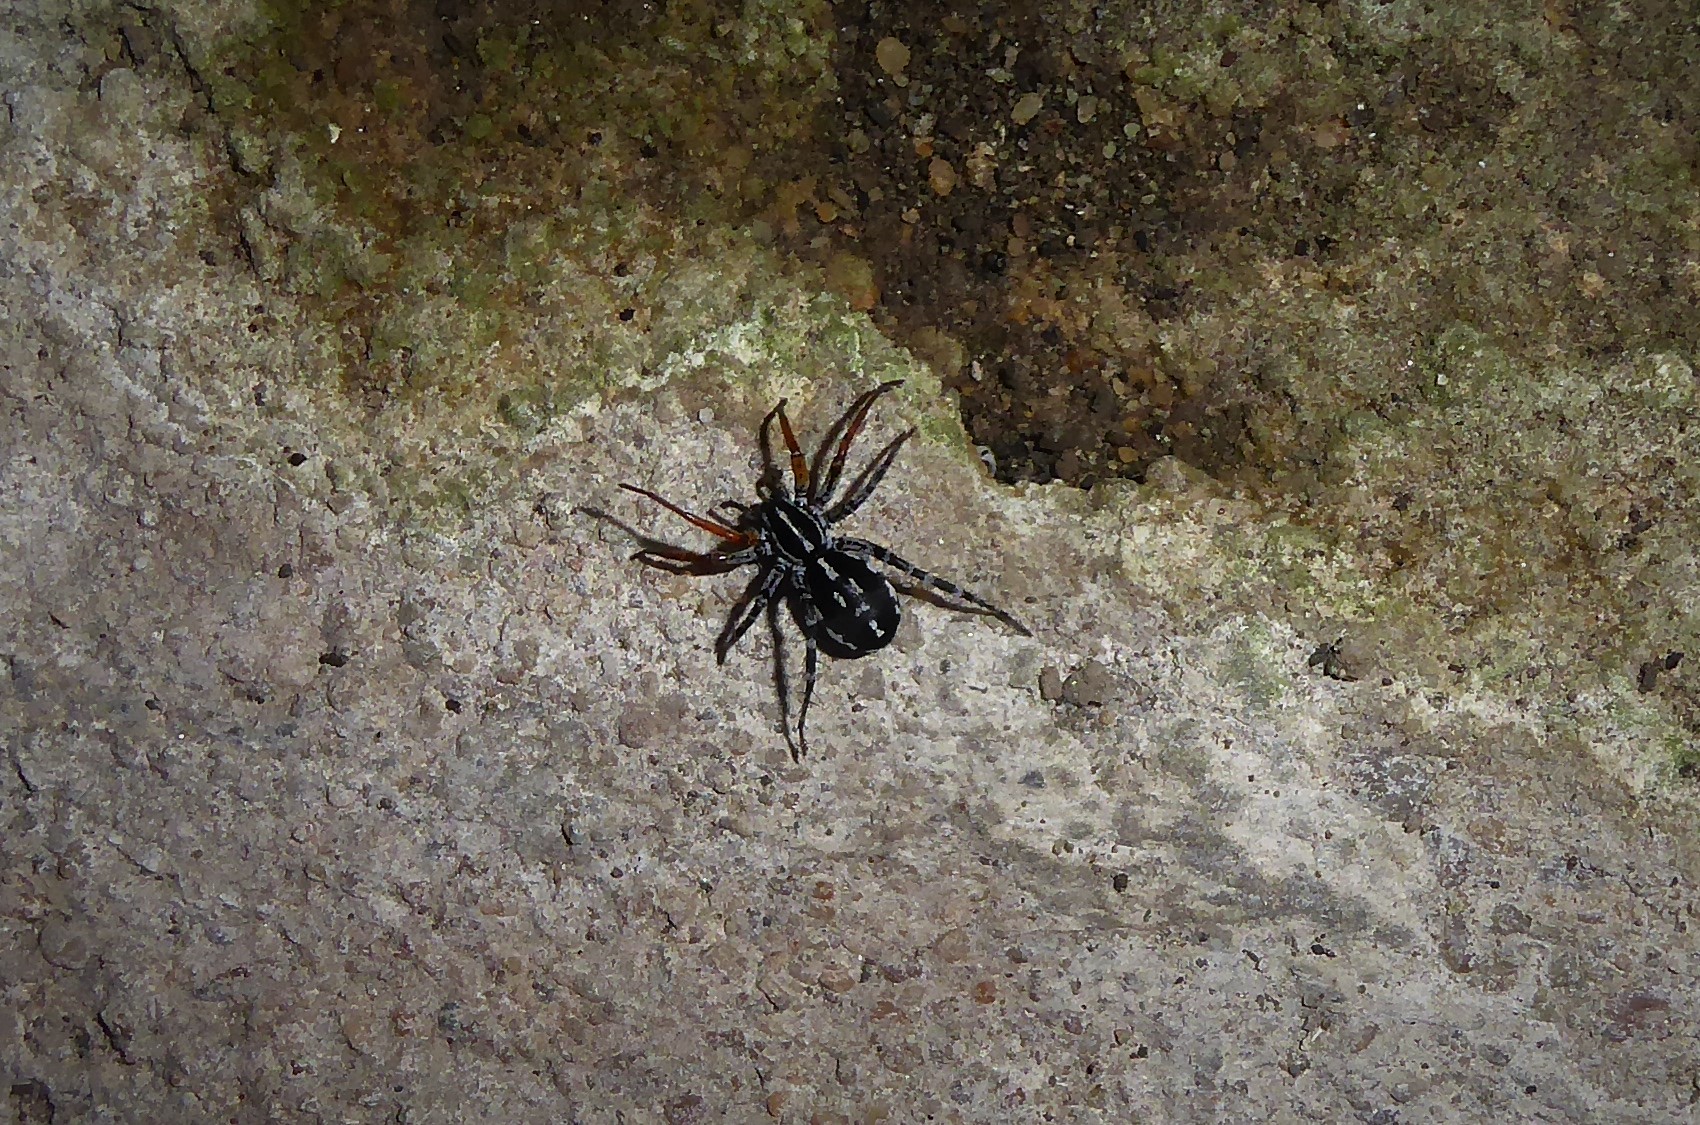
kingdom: Animalia
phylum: Arthropoda
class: Arachnida
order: Araneae
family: Corinnidae
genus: Nyssus
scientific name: Nyssus coloripes
